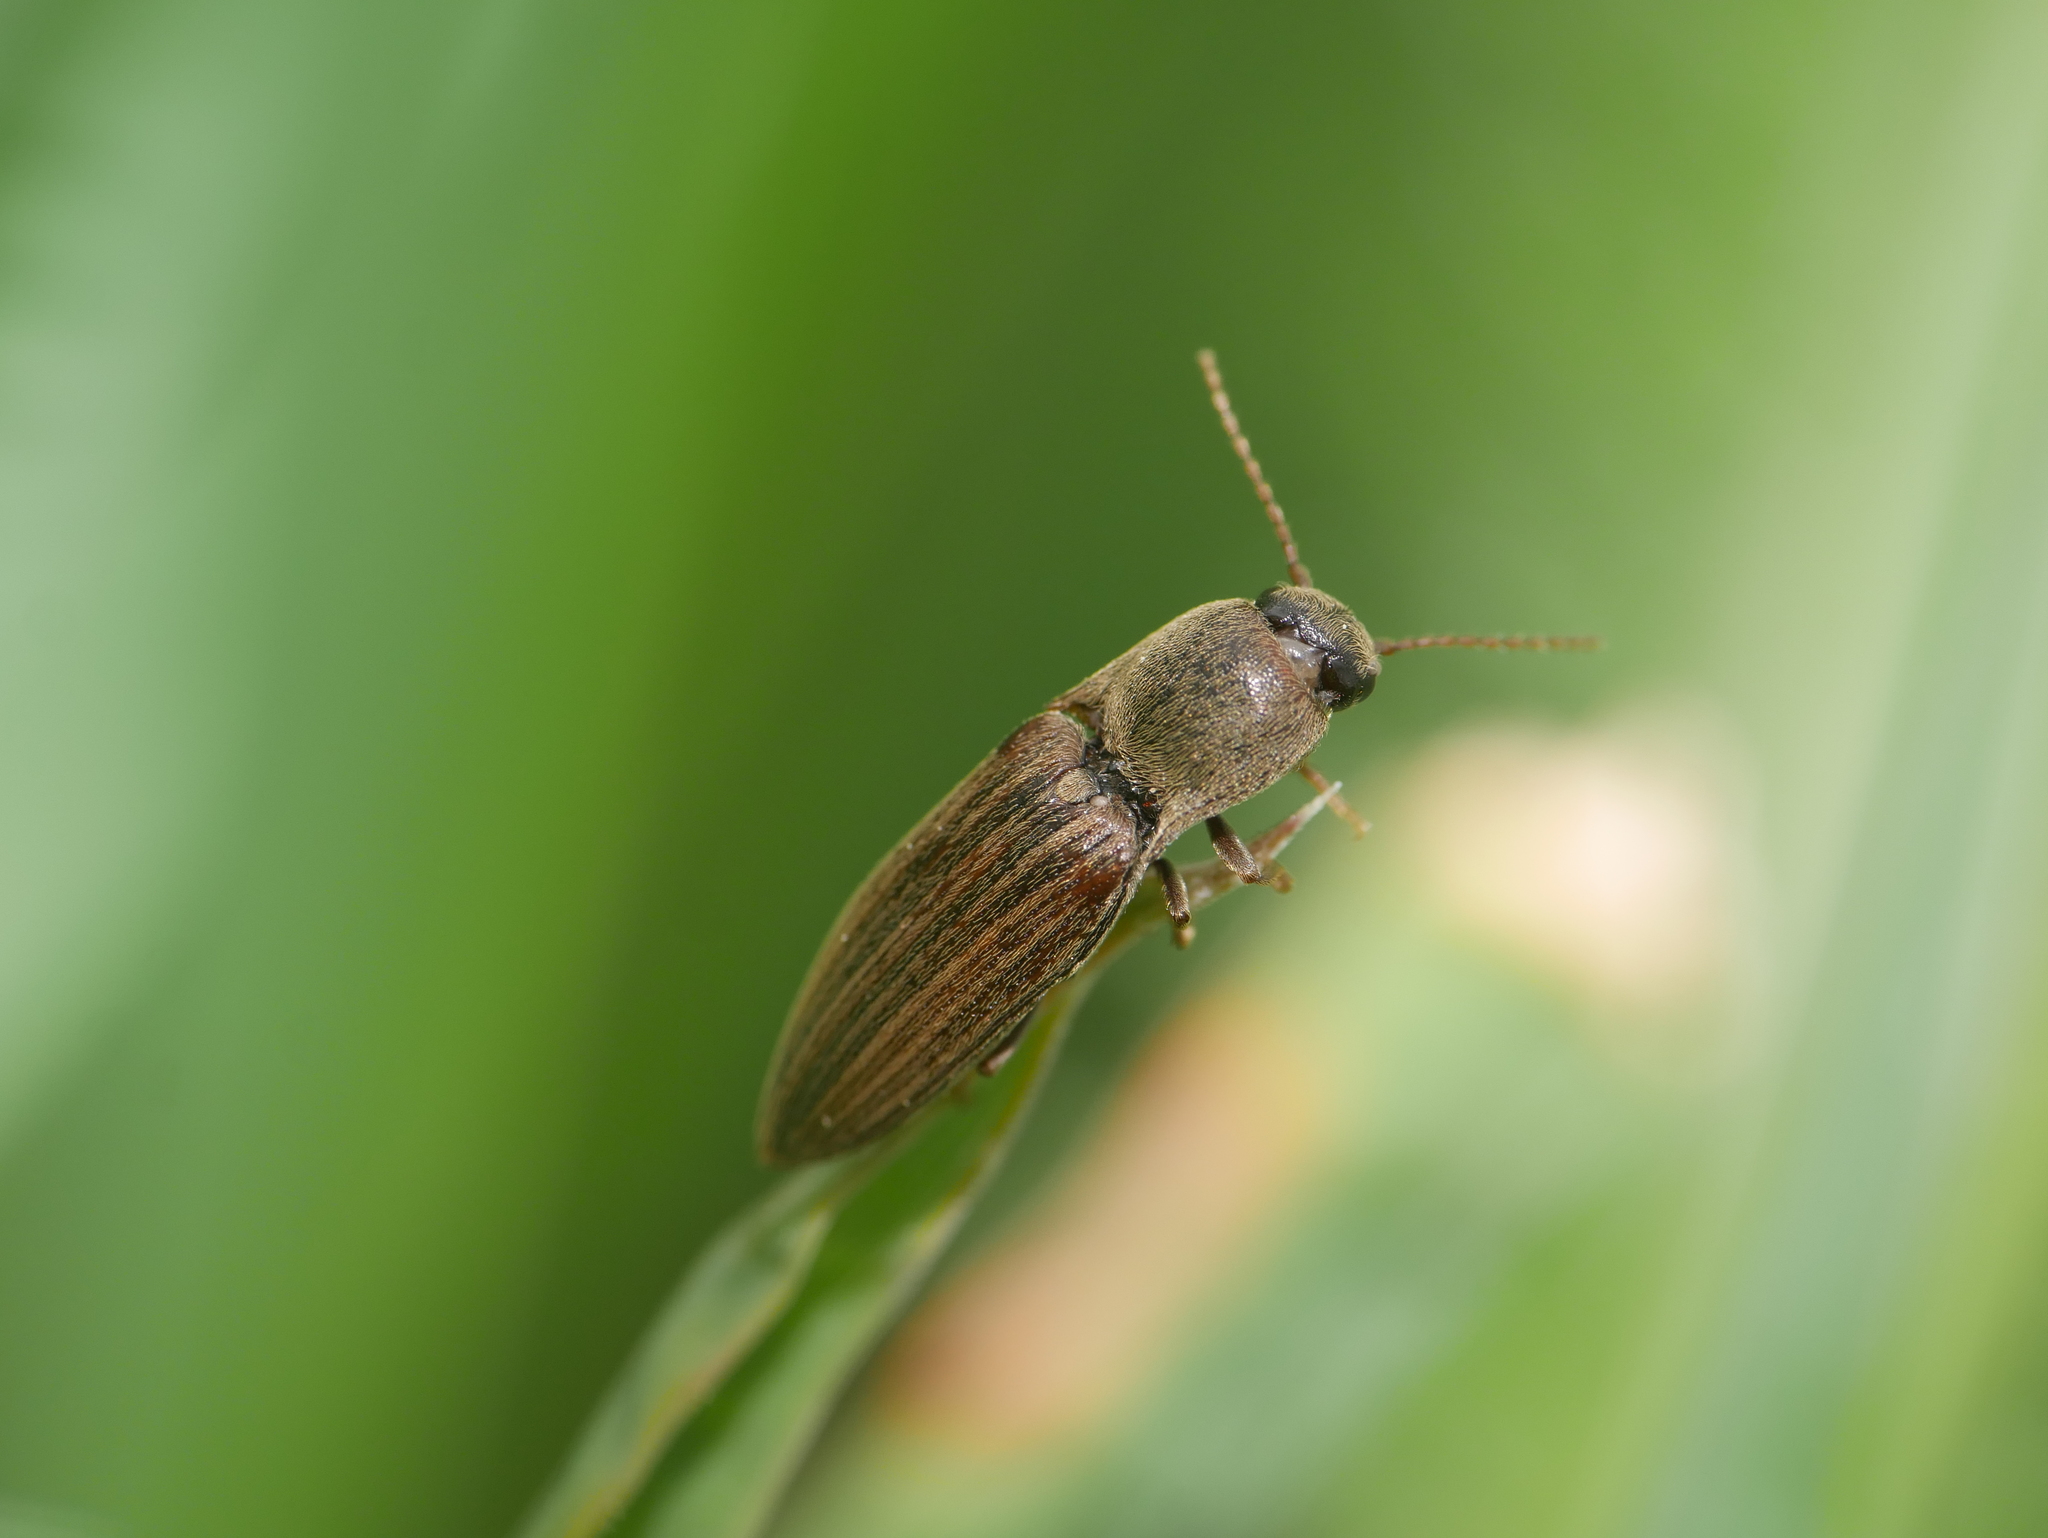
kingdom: Animalia
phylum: Arthropoda
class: Insecta
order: Coleoptera
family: Elateridae
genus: Agriotes
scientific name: Agriotes lineatus
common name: Lined click beetle
